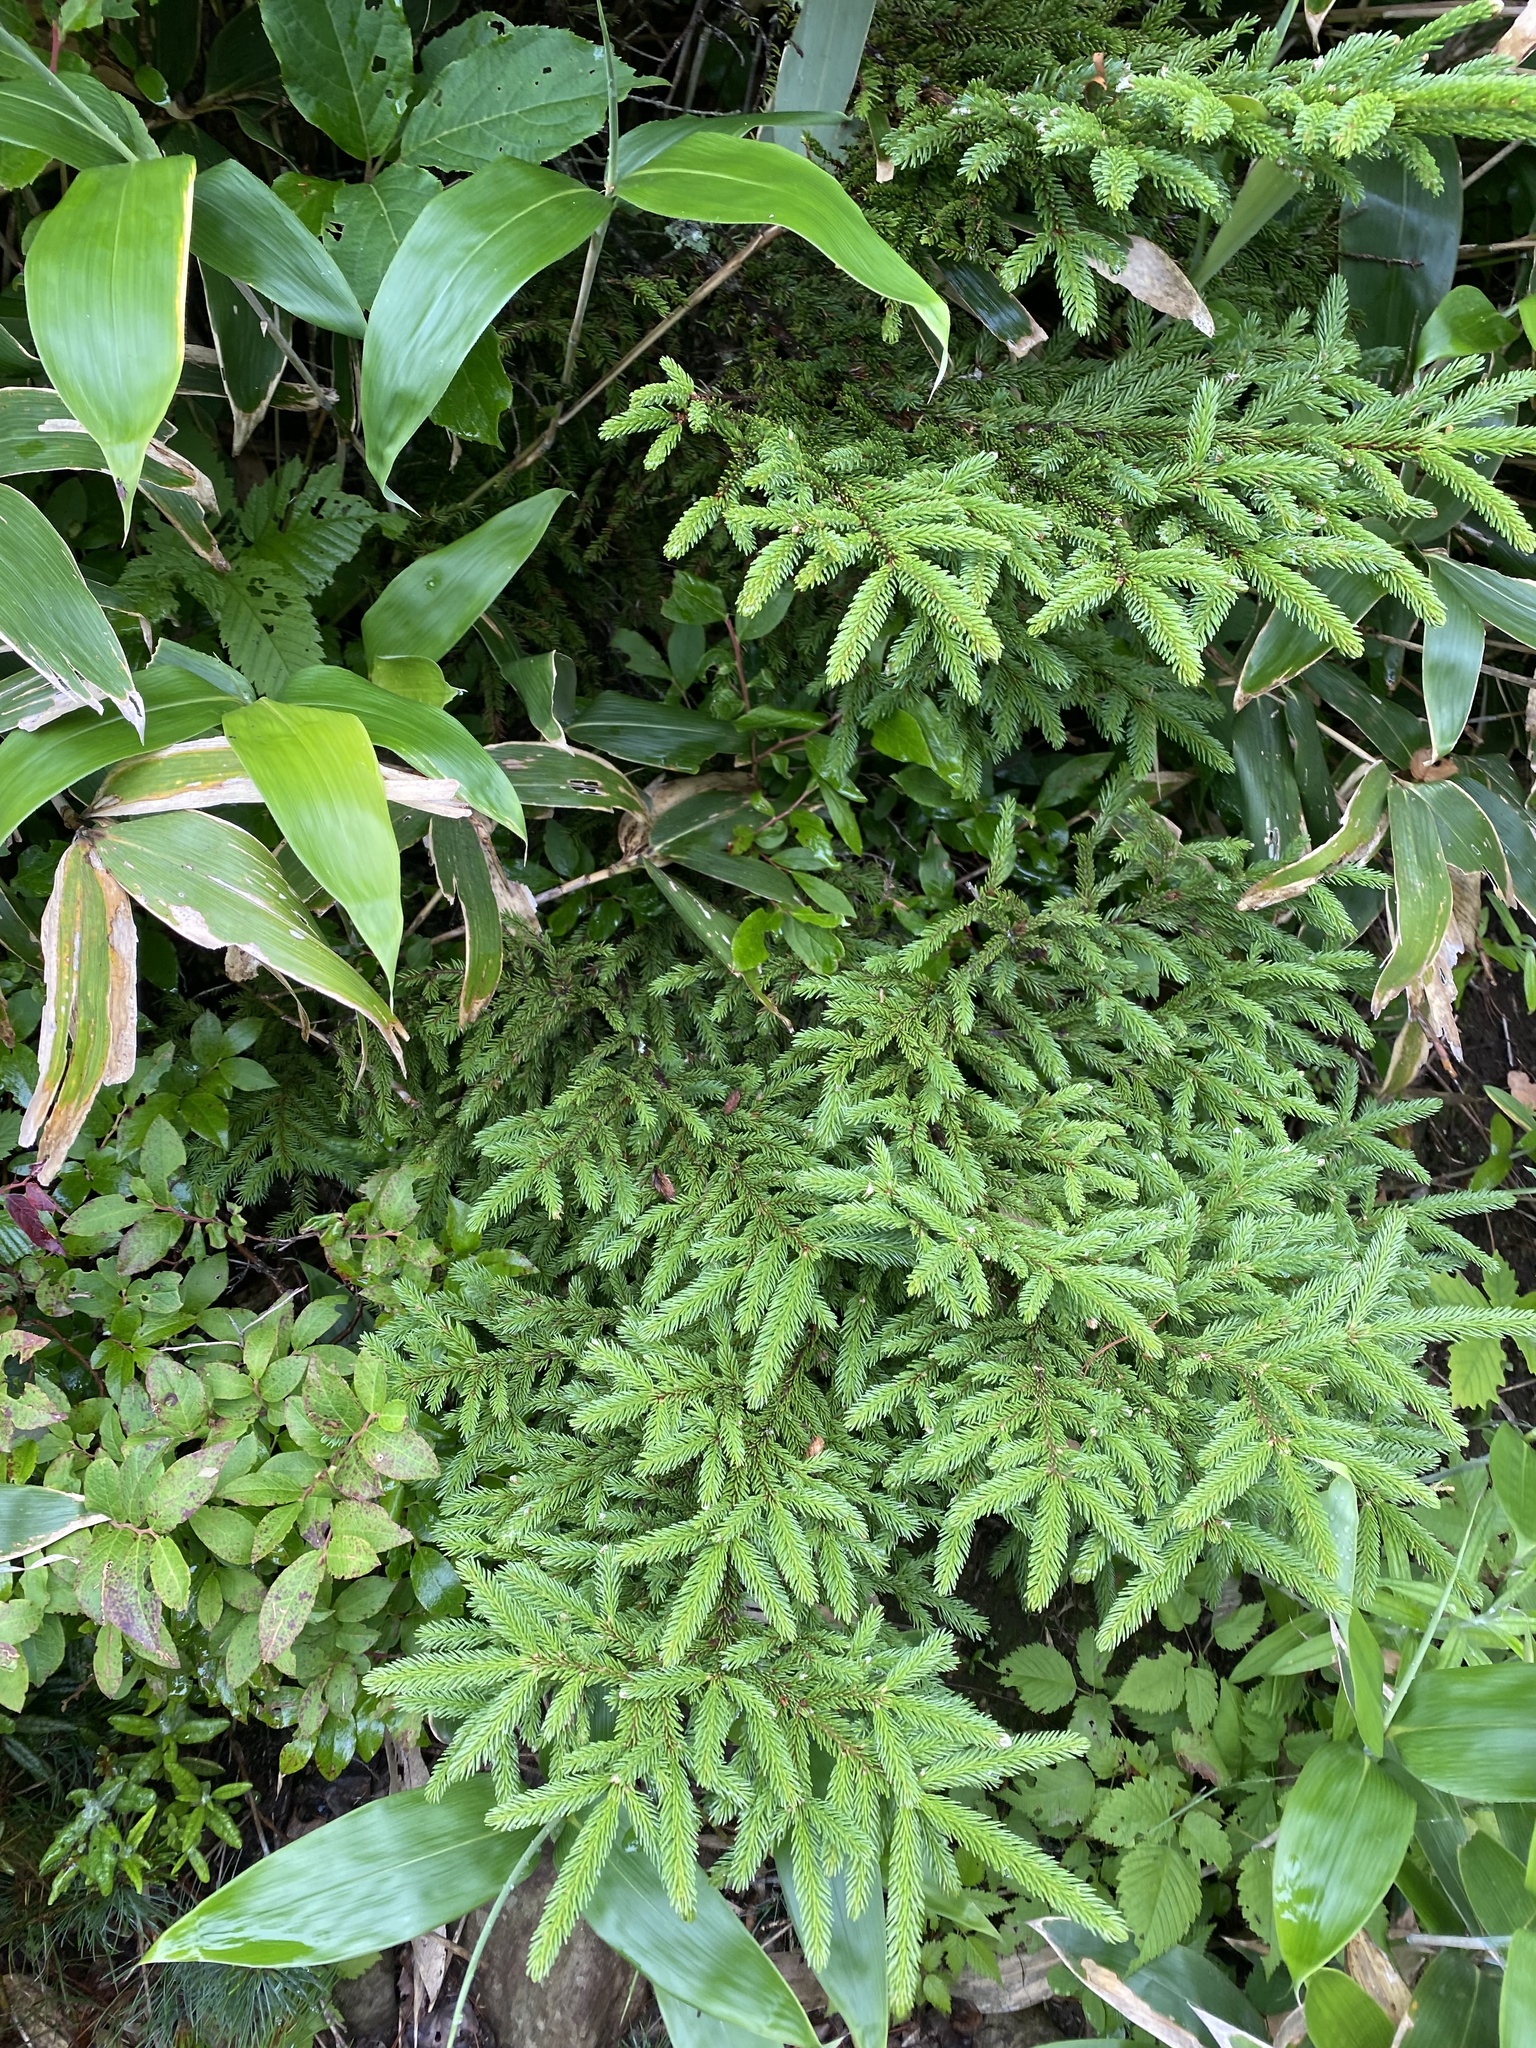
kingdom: Plantae
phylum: Tracheophyta
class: Pinopsida
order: Pinales
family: Pinaceae
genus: Picea
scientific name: Picea jezoensis
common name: Yeddo spruce
